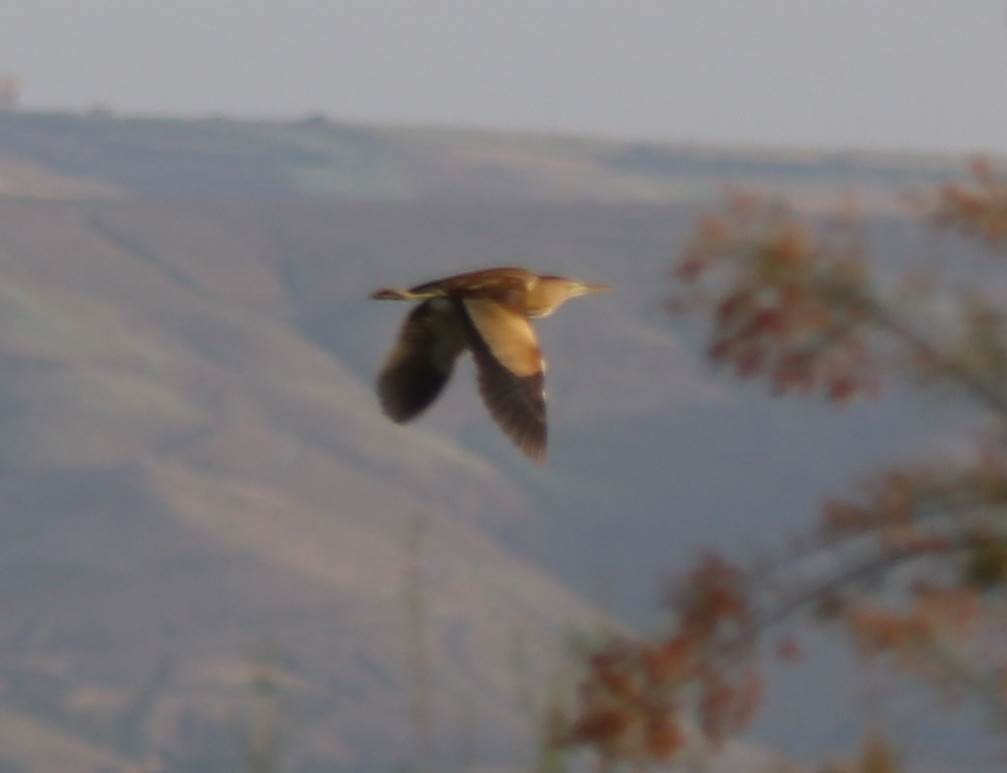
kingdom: Animalia
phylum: Chordata
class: Aves
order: Pelecaniformes
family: Ardeidae
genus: Ixobrychus
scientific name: Ixobrychus minutus
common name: Little bittern
